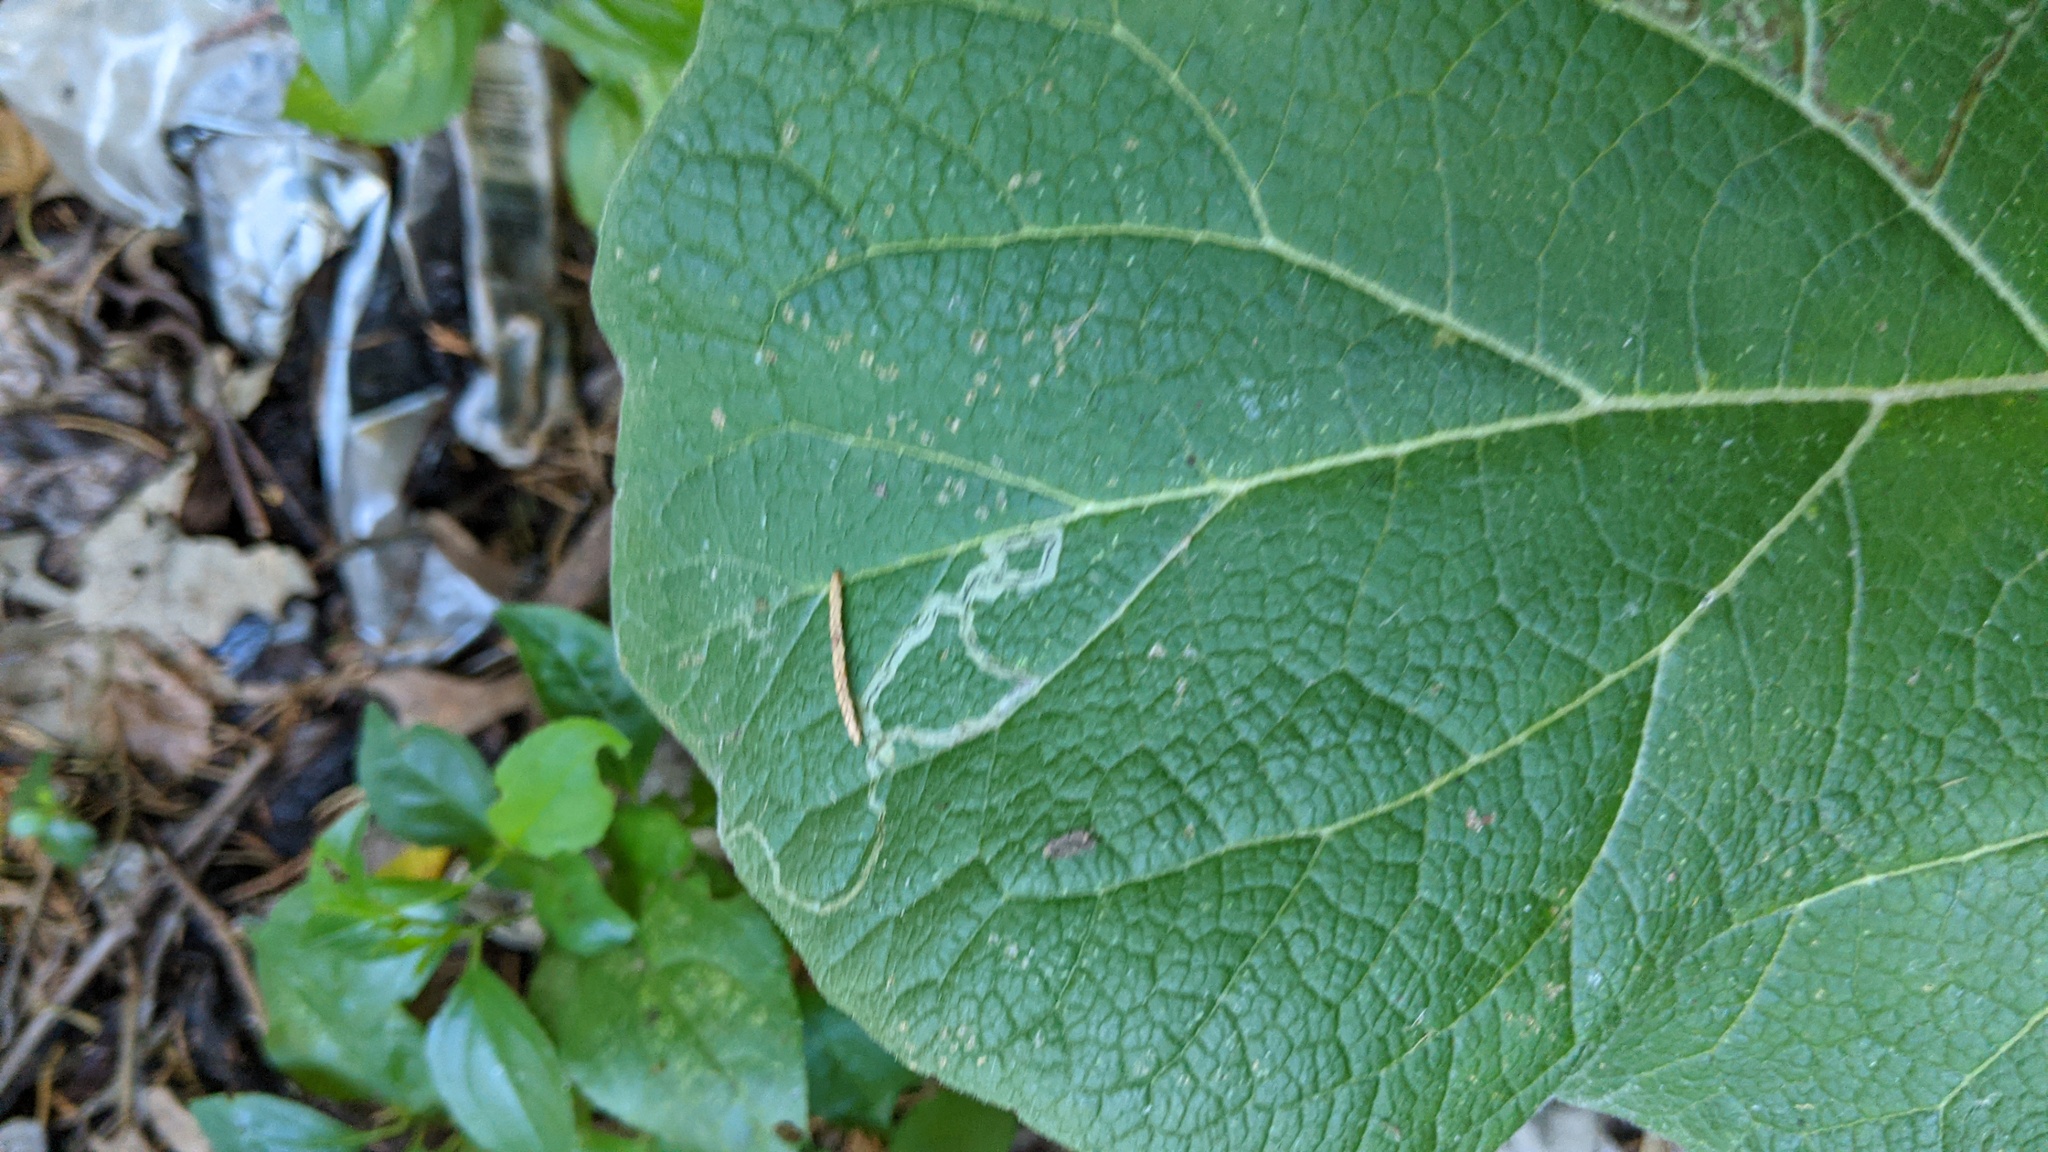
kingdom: Animalia
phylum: Arthropoda
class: Insecta
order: Diptera
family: Agromyzidae
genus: Liriomyza
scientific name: Liriomyza arctii
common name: Burdock leafminer
